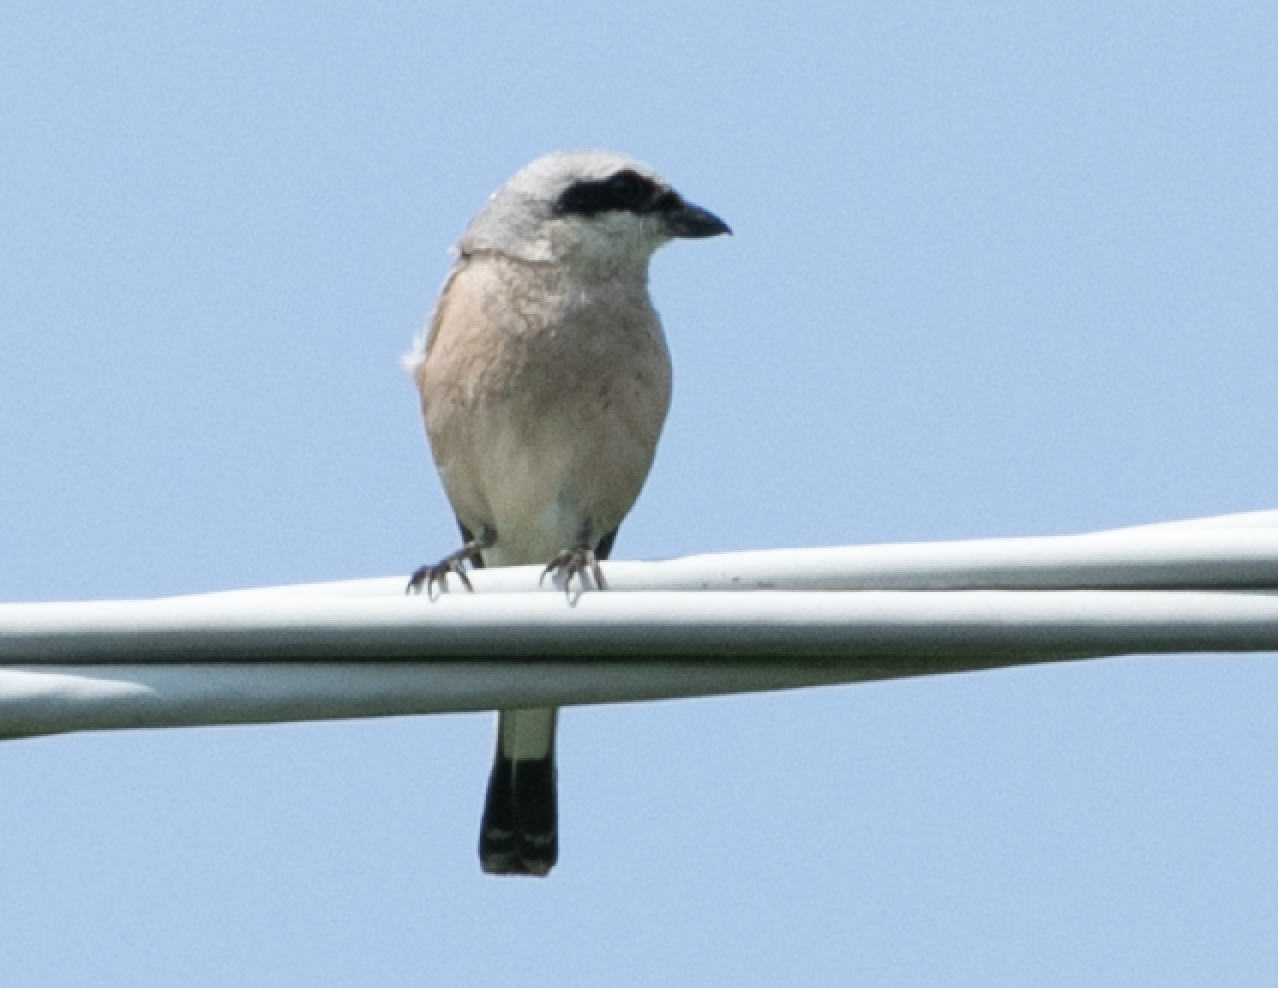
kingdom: Animalia
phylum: Chordata
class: Aves
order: Passeriformes
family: Laniidae
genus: Lanius
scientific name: Lanius collurio
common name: Red-backed shrike
